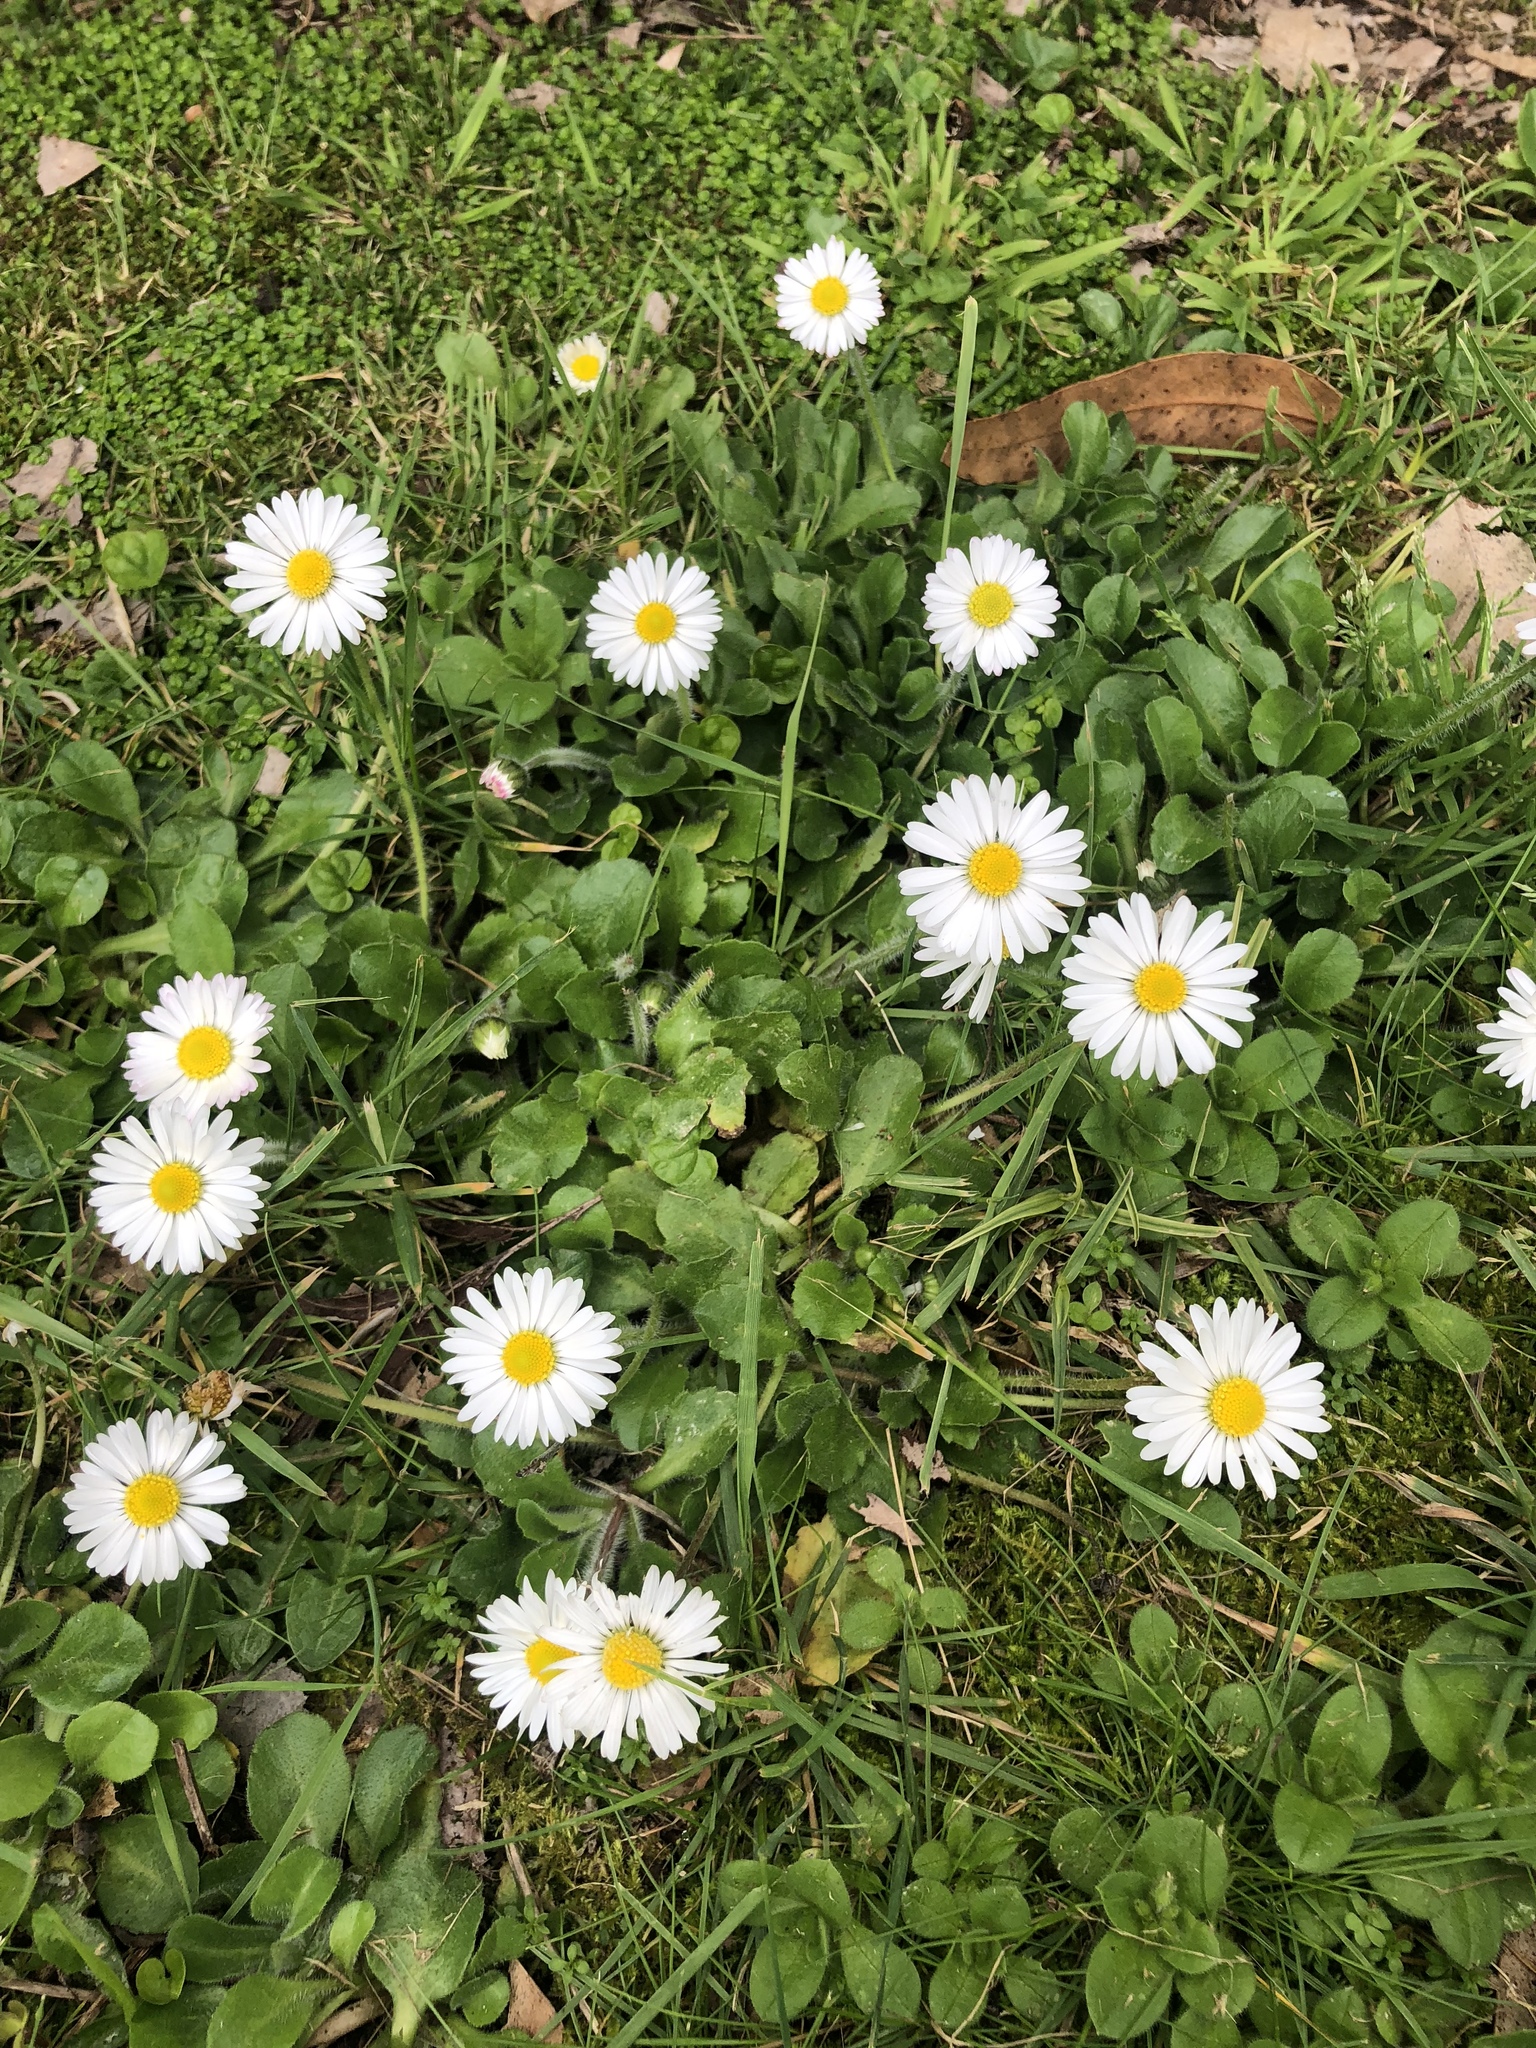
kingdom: Plantae
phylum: Tracheophyta
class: Magnoliopsida
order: Asterales
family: Asteraceae
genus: Bellis
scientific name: Bellis perennis
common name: Lawndaisy
